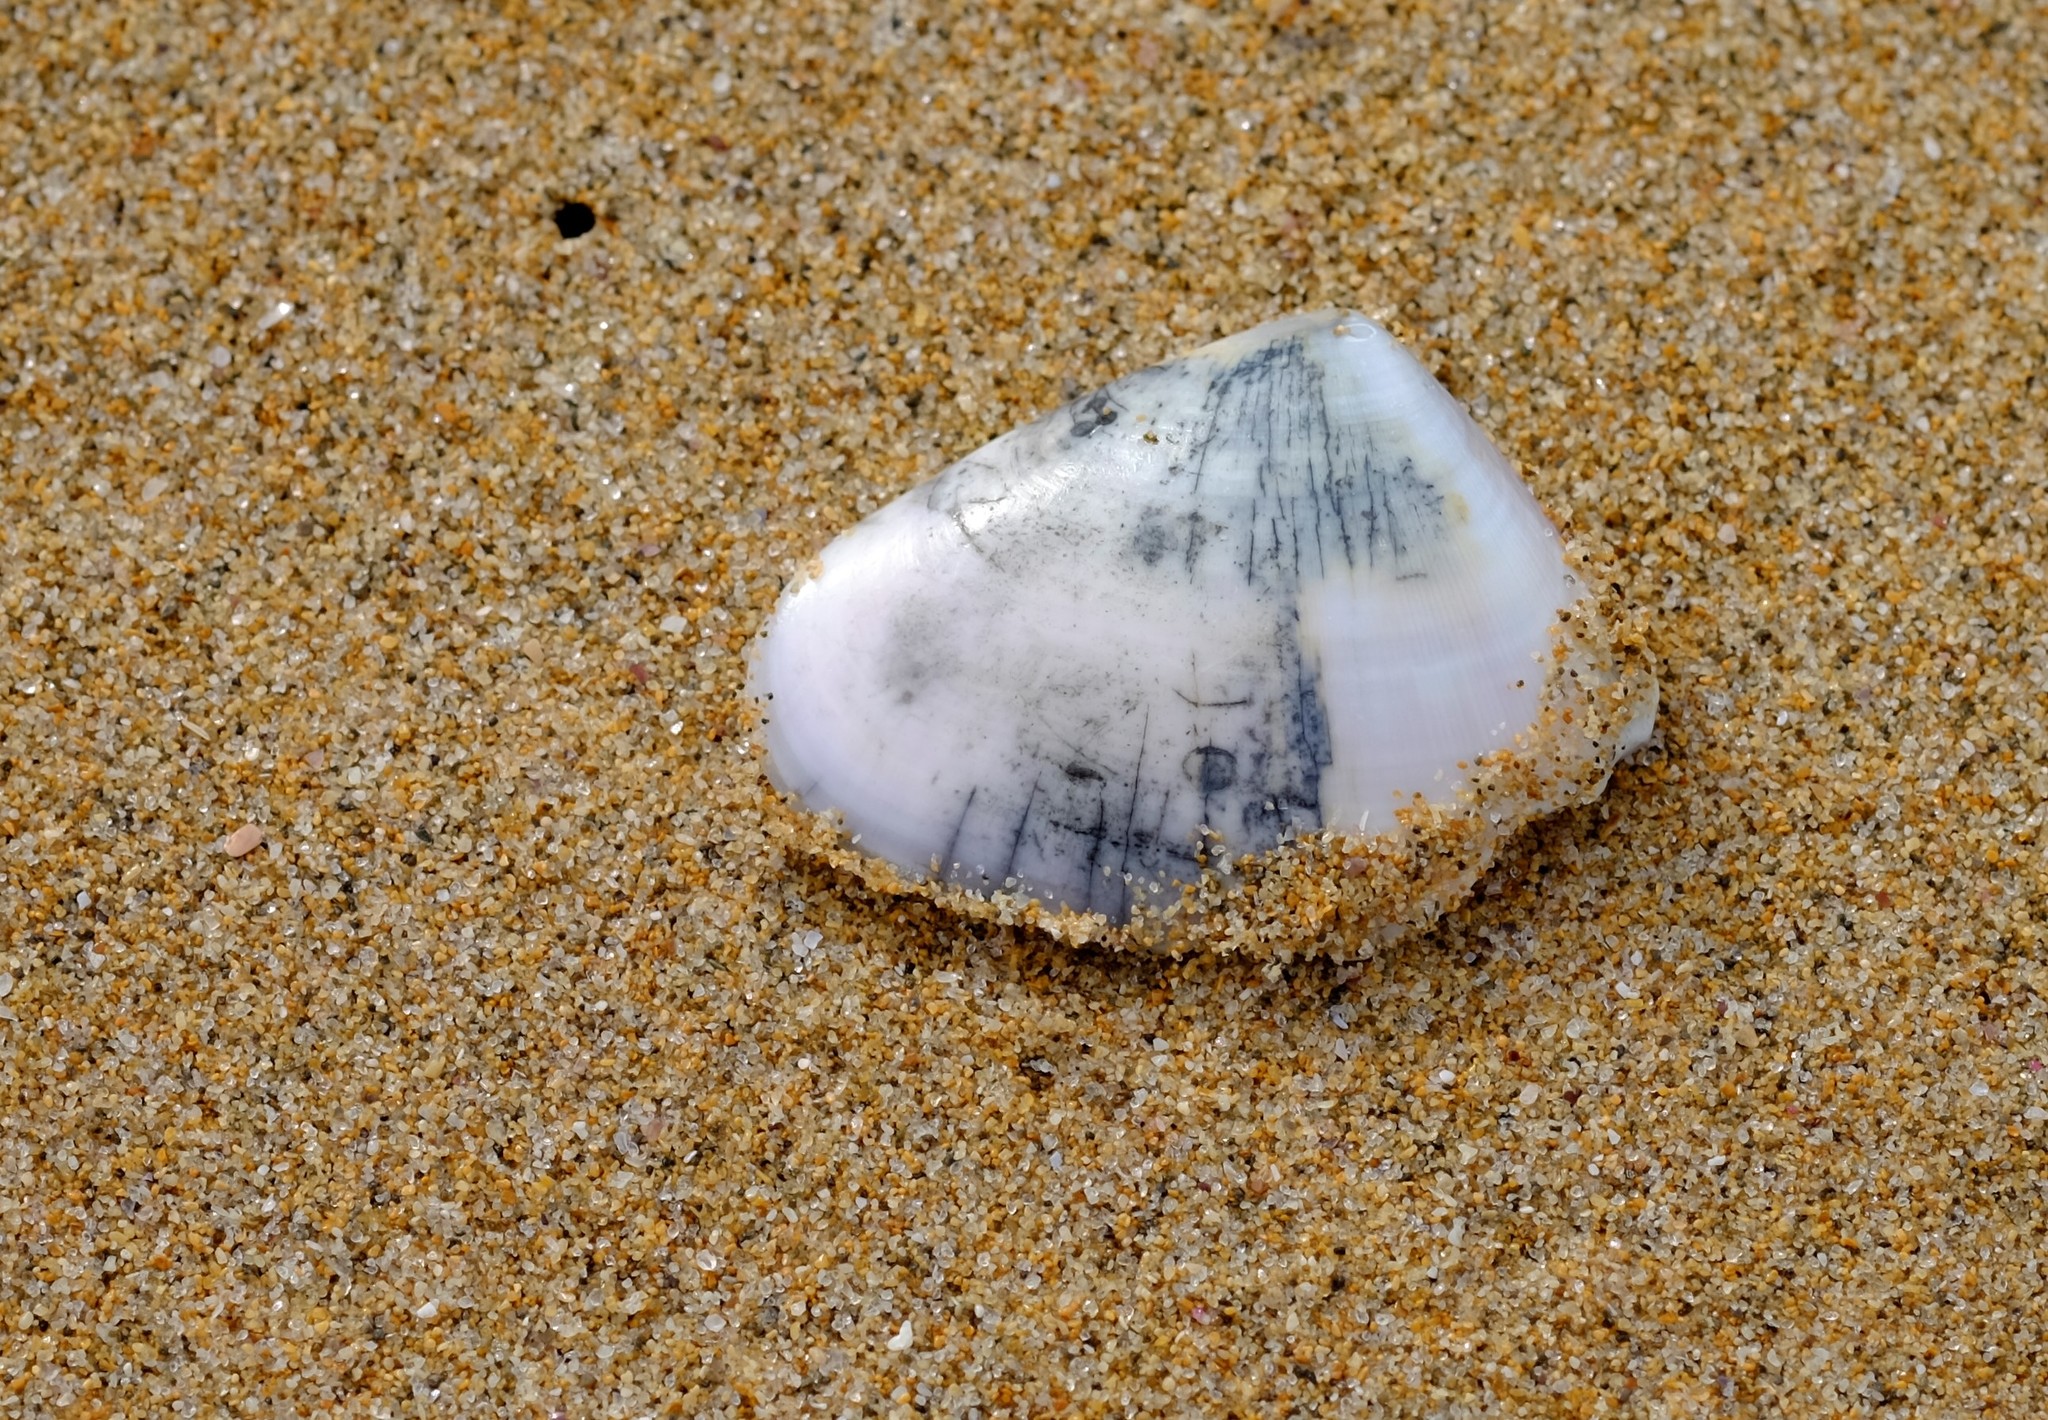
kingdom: Animalia
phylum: Mollusca
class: Bivalvia
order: Cardiida
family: Donacidae
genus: Latona
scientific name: Latona deltoides
